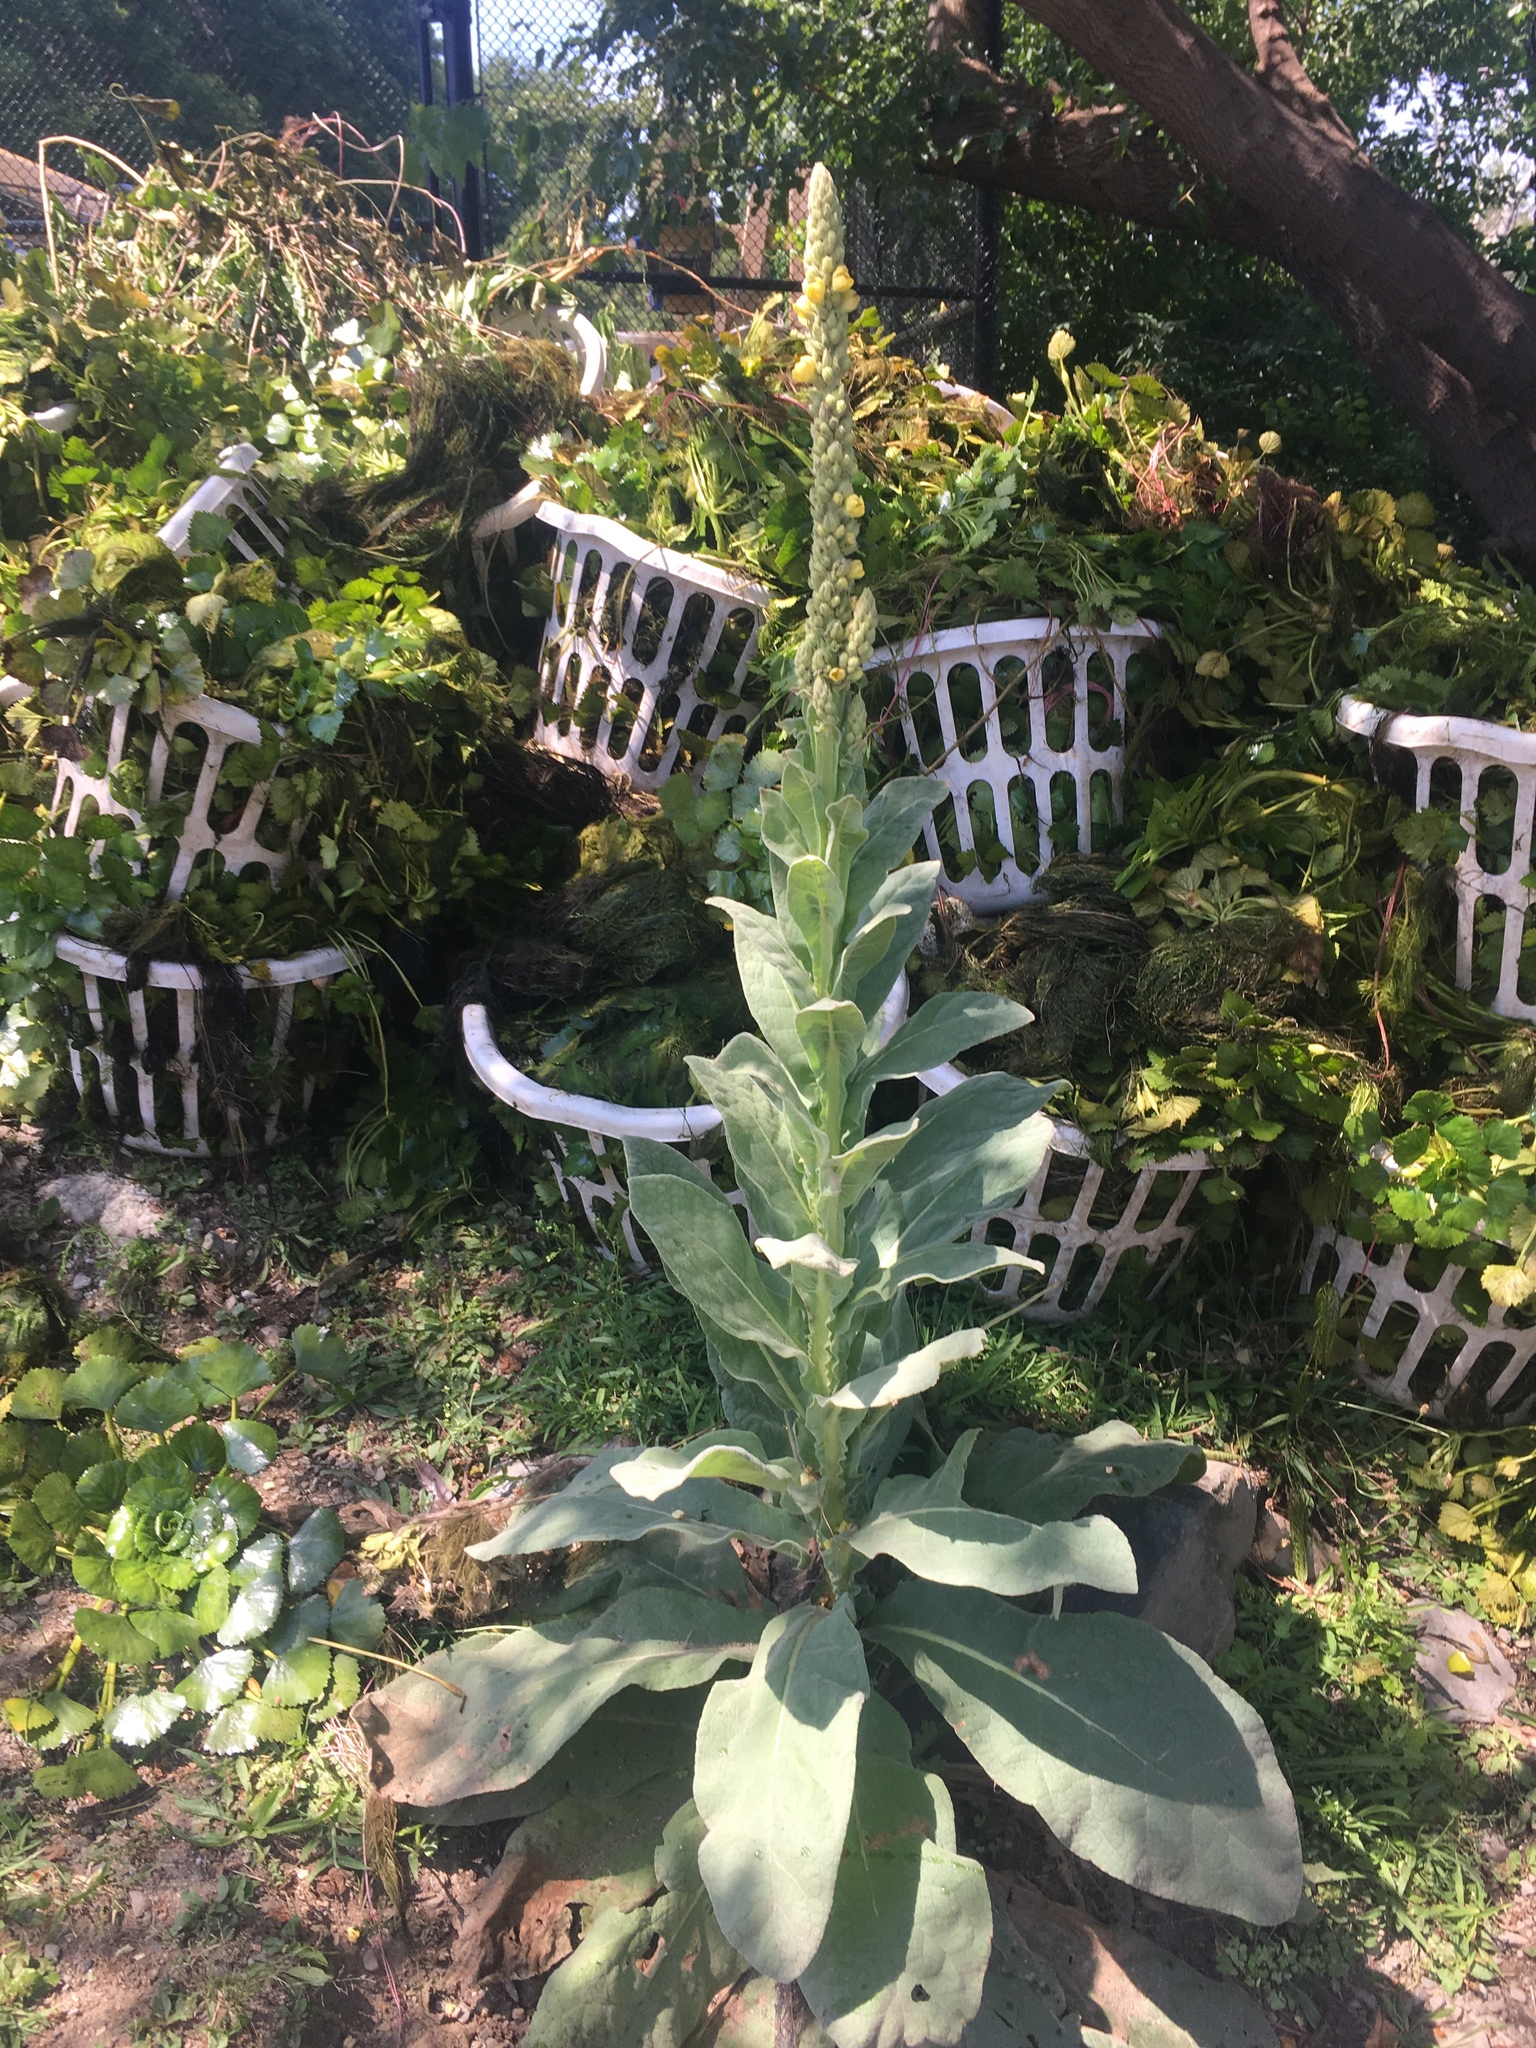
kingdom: Plantae
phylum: Tracheophyta
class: Magnoliopsida
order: Lamiales
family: Scrophulariaceae
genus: Verbascum
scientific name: Verbascum thapsus
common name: Common mullein
